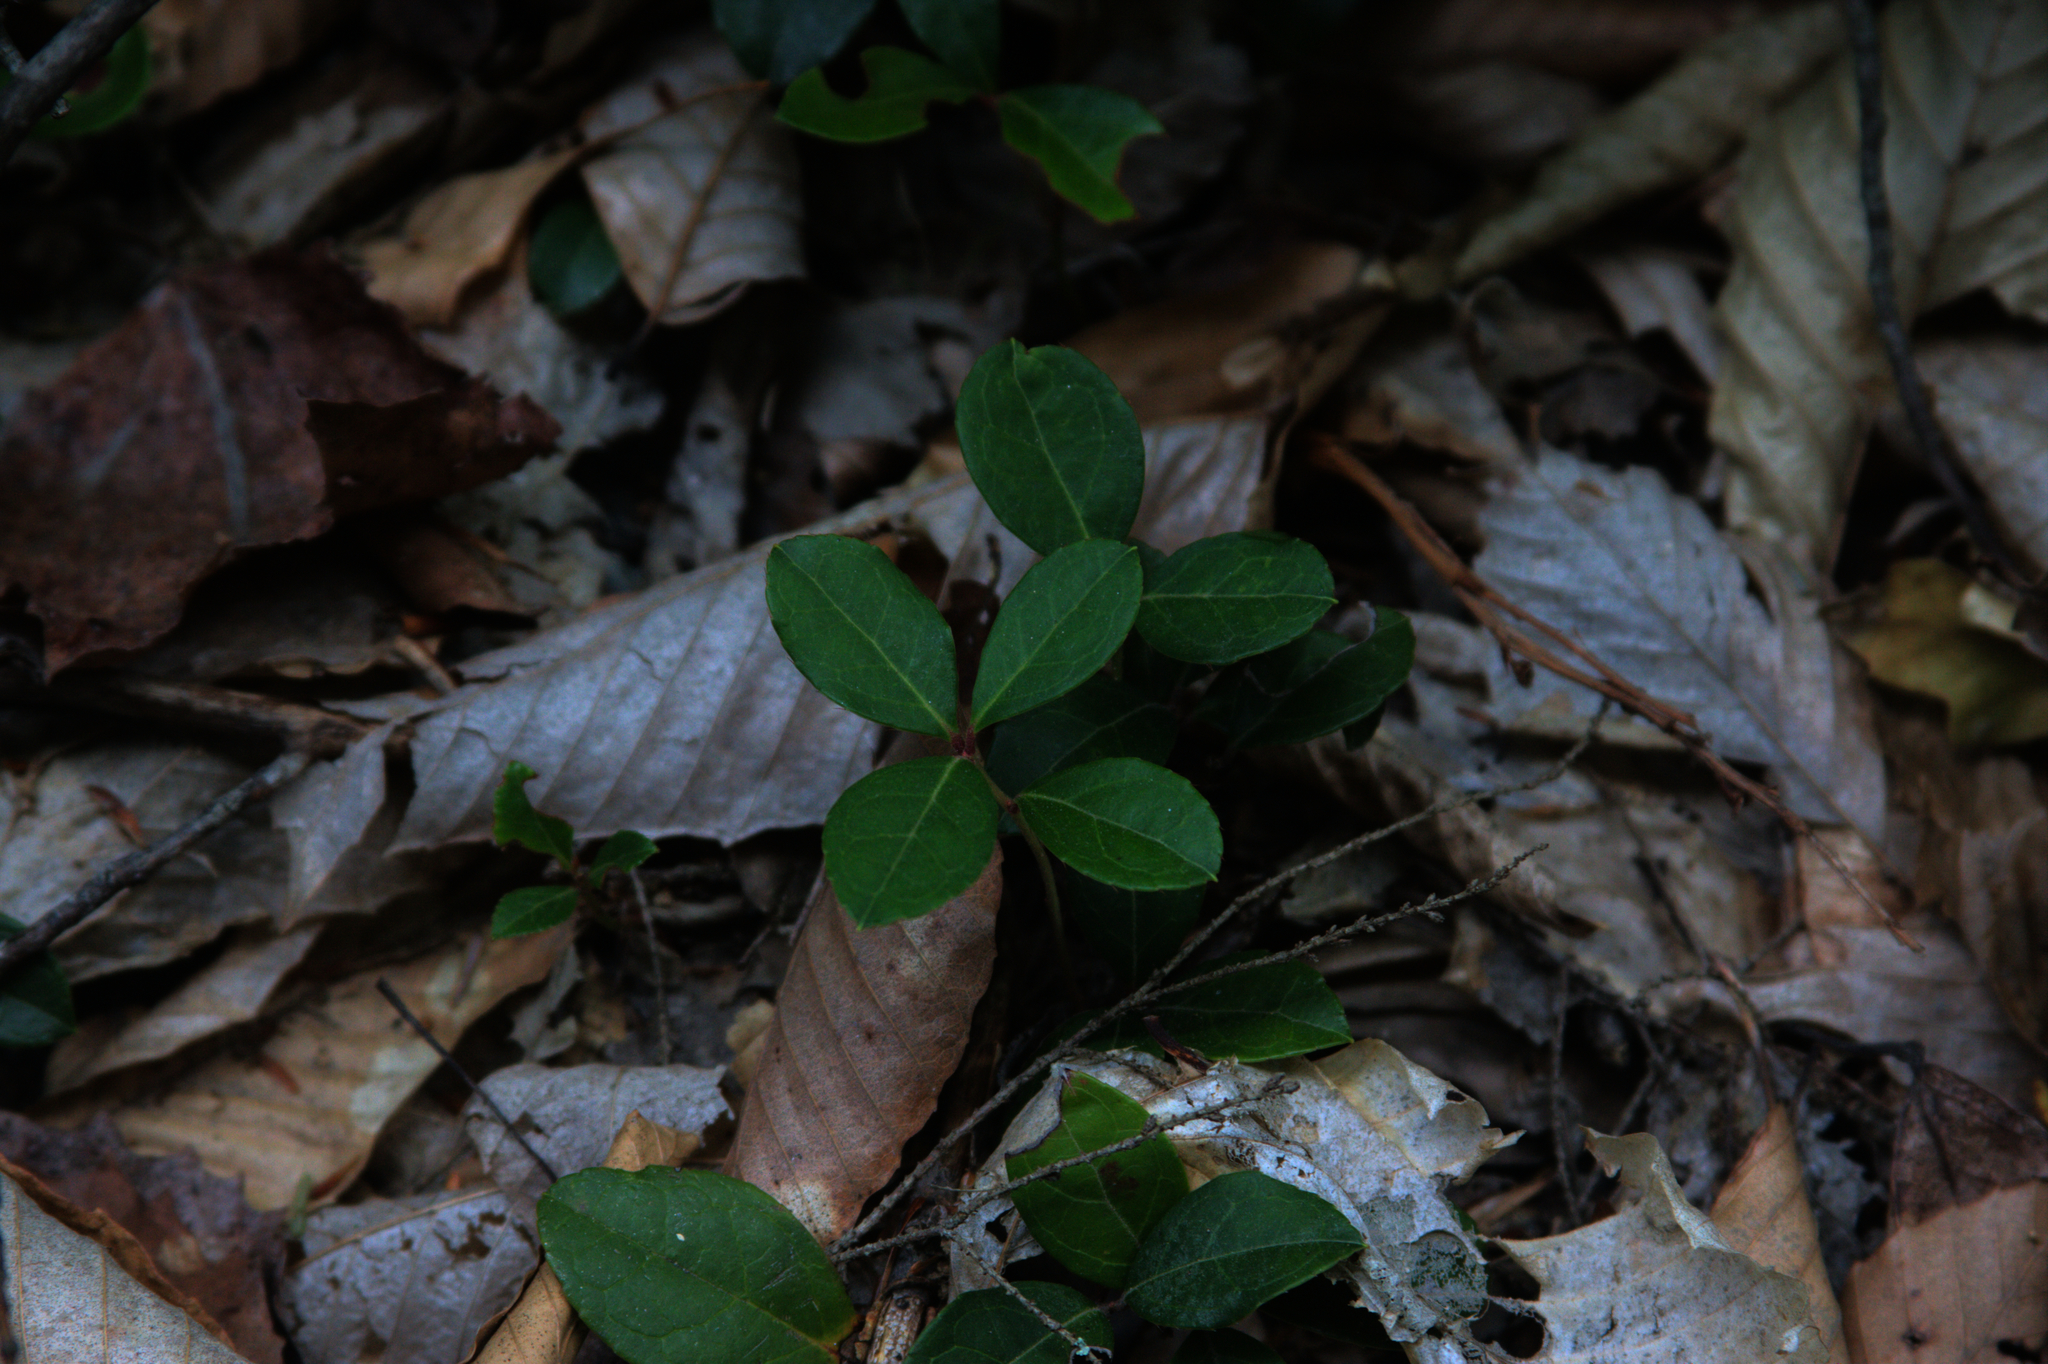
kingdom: Plantae
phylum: Tracheophyta
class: Magnoliopsida
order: Ericales
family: Ericaceae
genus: Gaultheria
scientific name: Gaultheria procumbens
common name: Checkerberry
